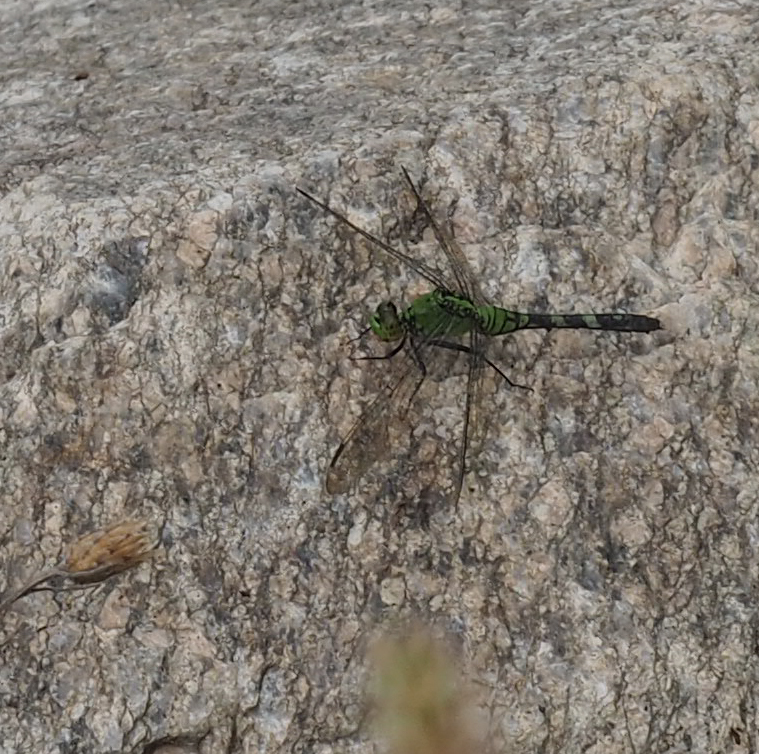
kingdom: Animalia
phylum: Arthropoda
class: Insecta
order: Odonata
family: Libellulidae
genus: Erythemis
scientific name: Erythemis simplicicollis
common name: Eastern pondhawk
